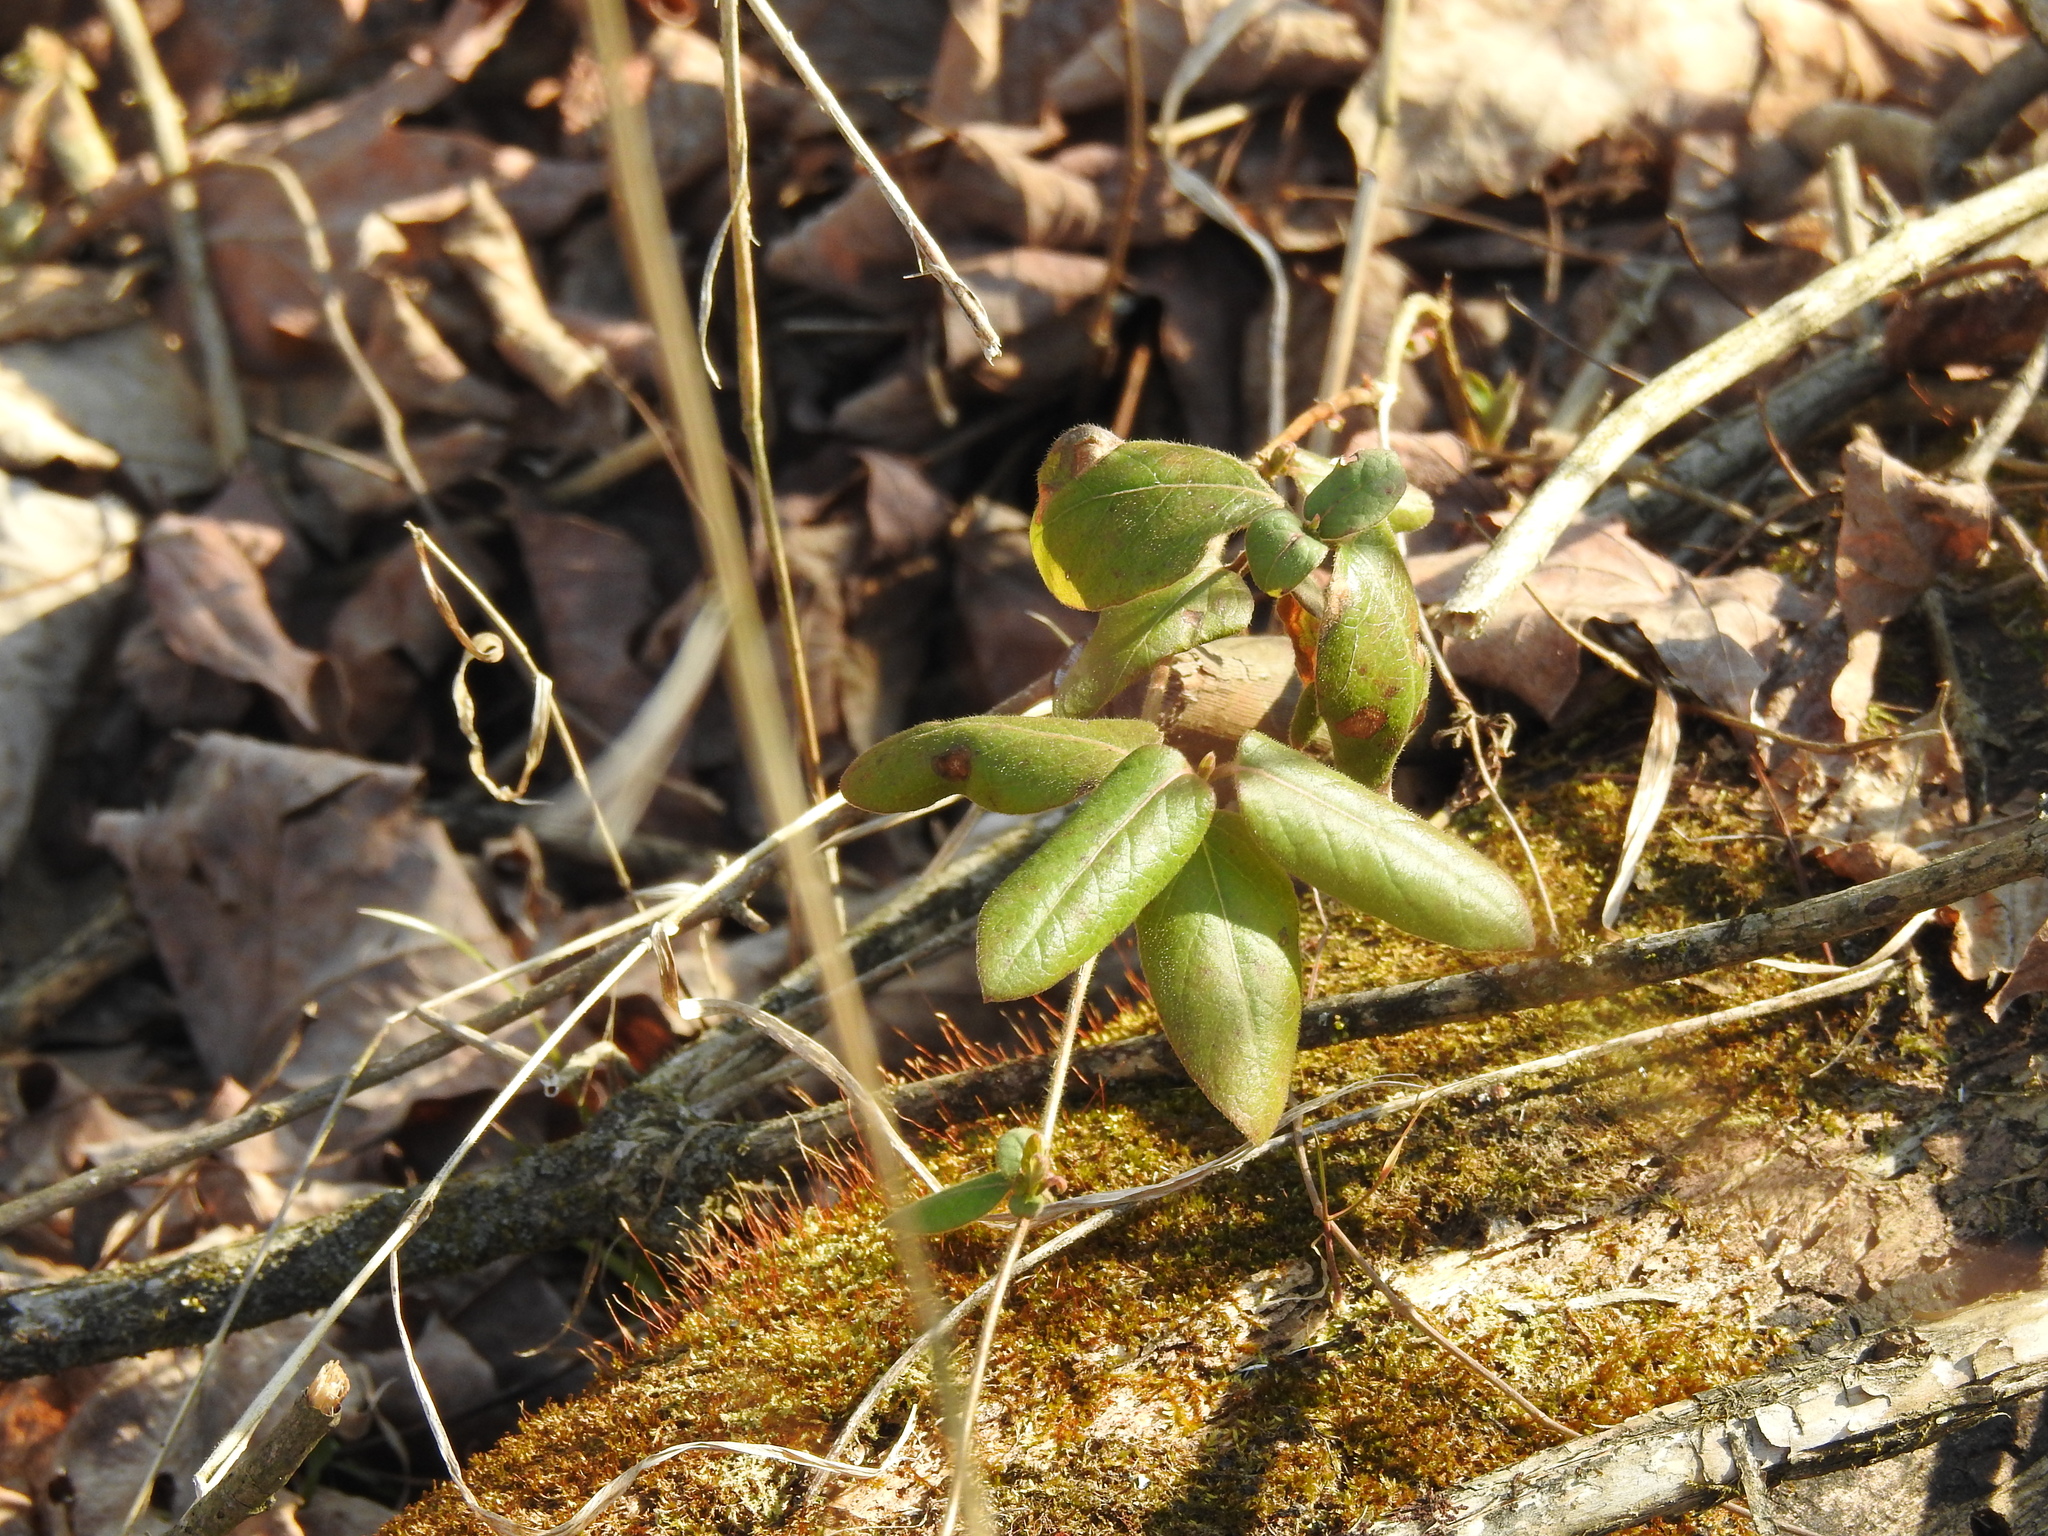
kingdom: Plantae
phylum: Tracheophyta
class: Magnoliopsida
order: Dipsacales
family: Caprifoliaceae
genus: Lonicera
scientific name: Lonicera japonica
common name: Japanese honeysuckle
